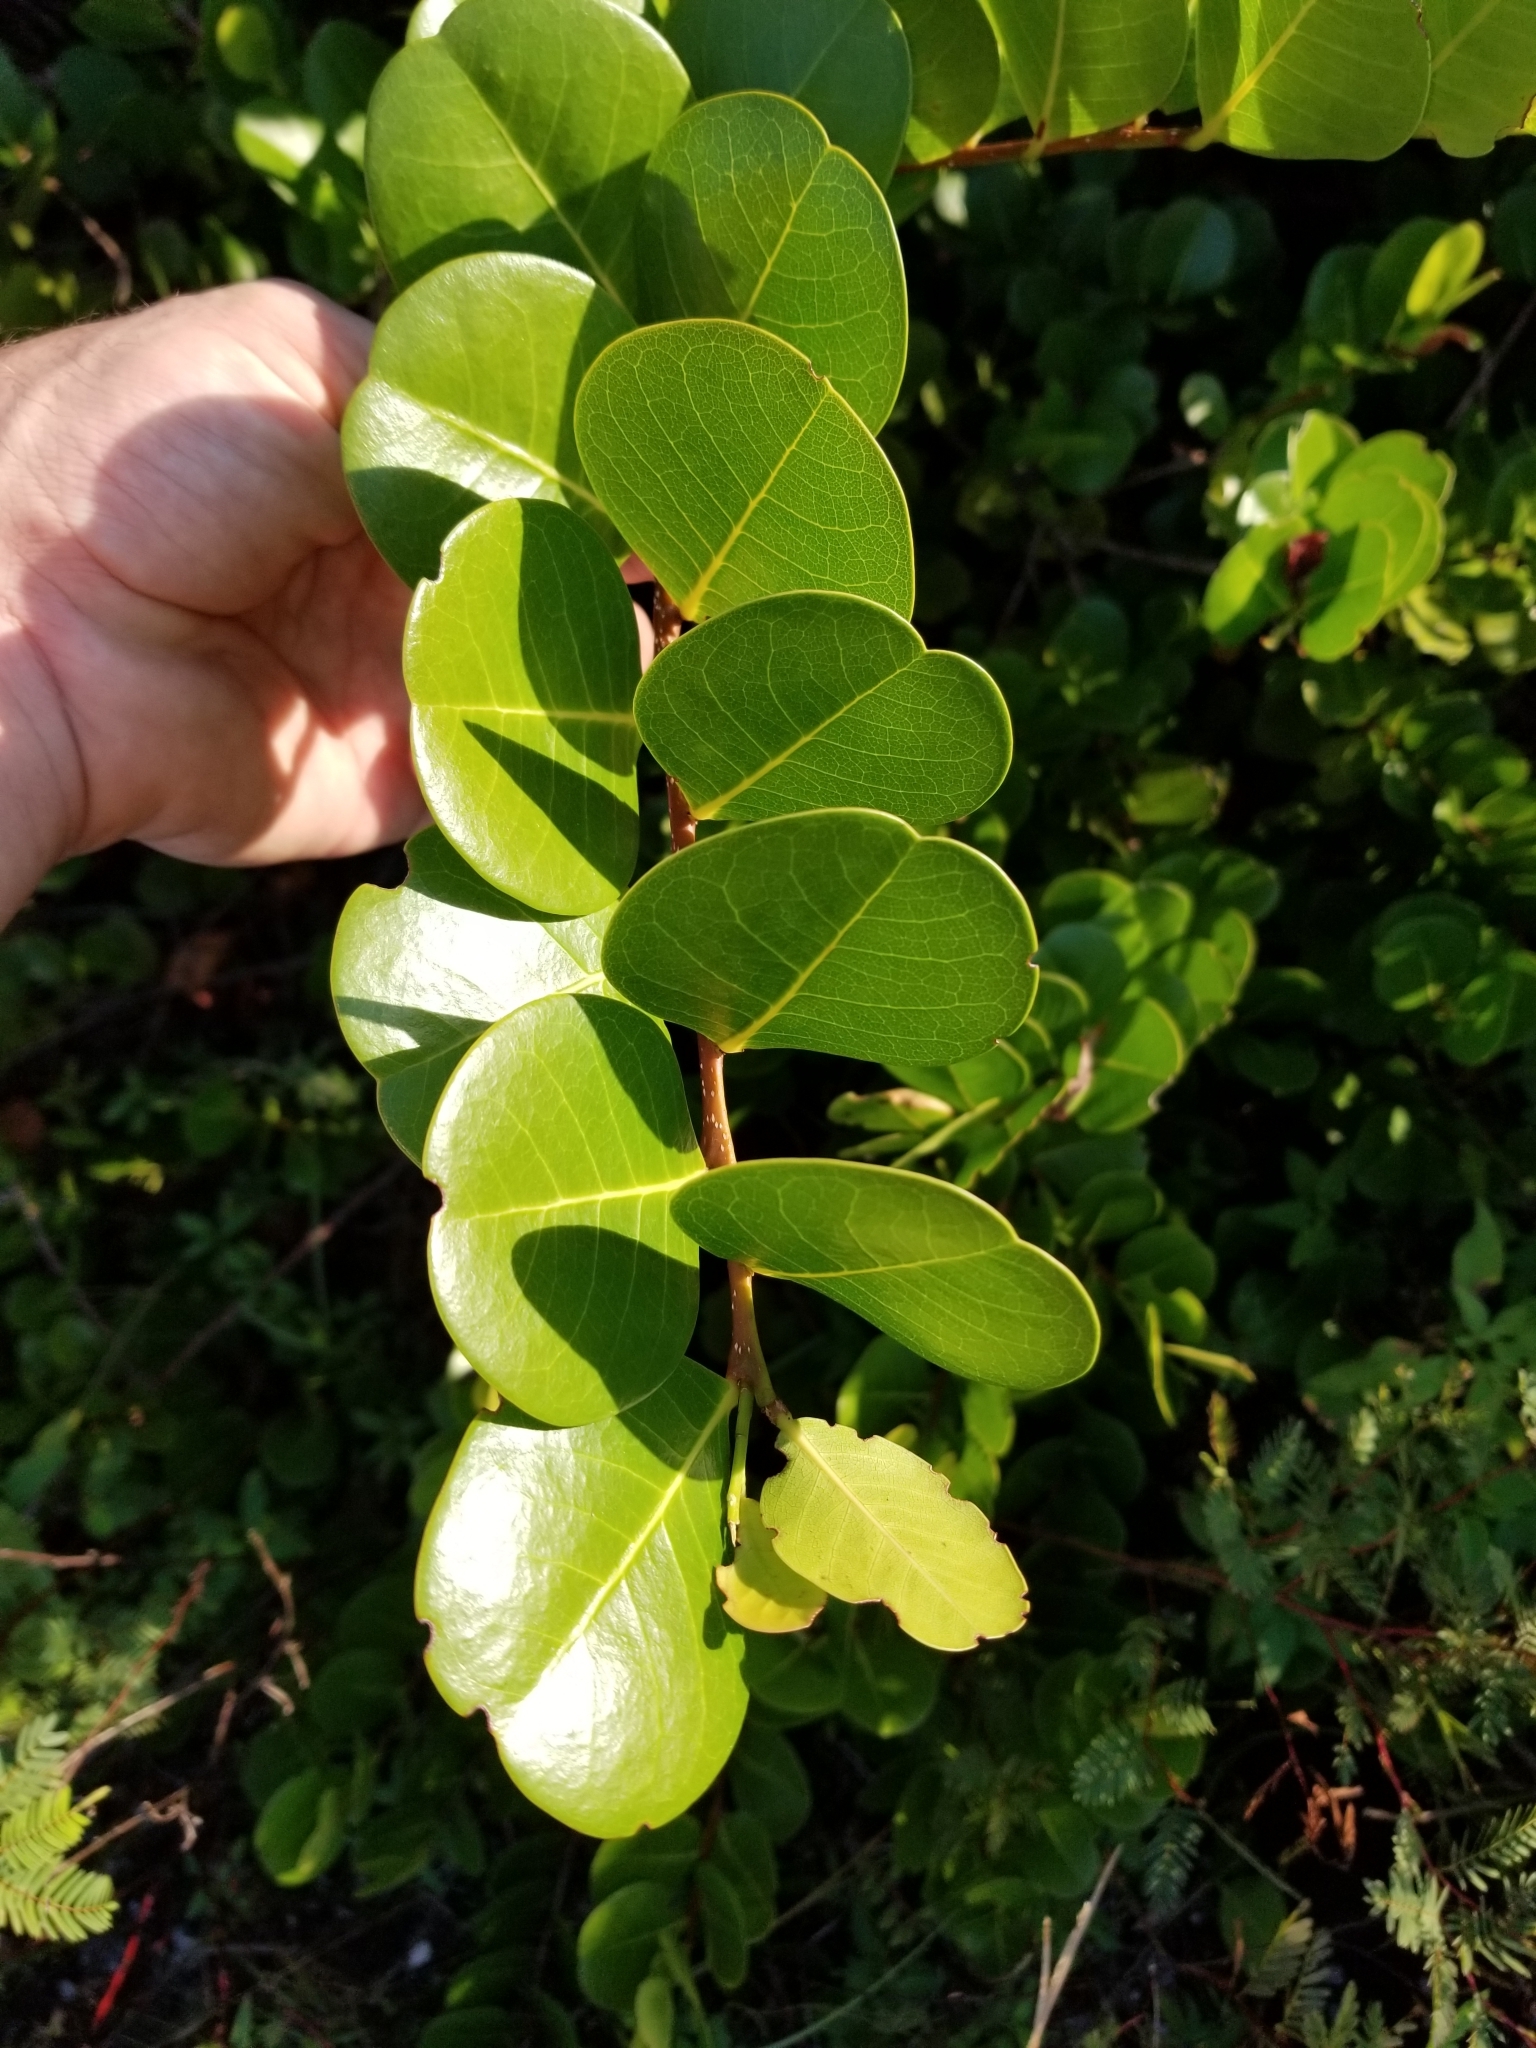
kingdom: Plantae
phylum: Tracheophyta
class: Magnoliopsida
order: Malpighiales
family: Chrysobalanaceae
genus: Chrysobalanus
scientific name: Chrysobalanus icaco
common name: Coco plum
